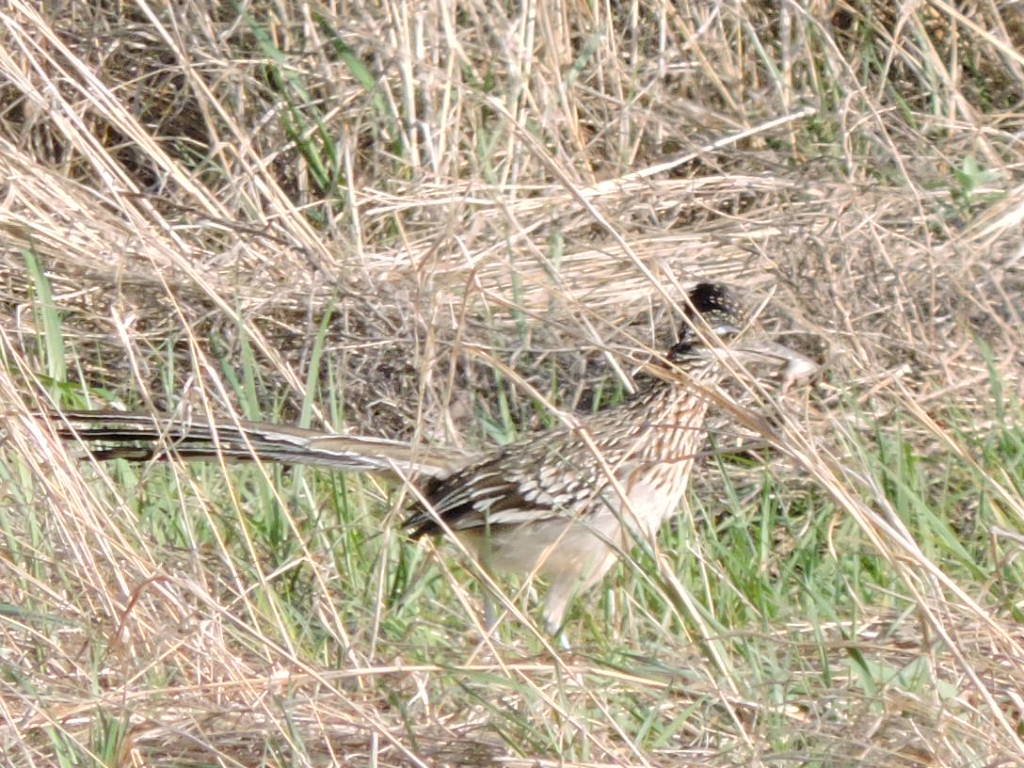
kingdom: Animalia
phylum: Chordata
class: Aves
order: Cuculiformes
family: Cuculidae
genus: Geococcyx
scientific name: Geococcyx californianus
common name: Greater roadrunner
